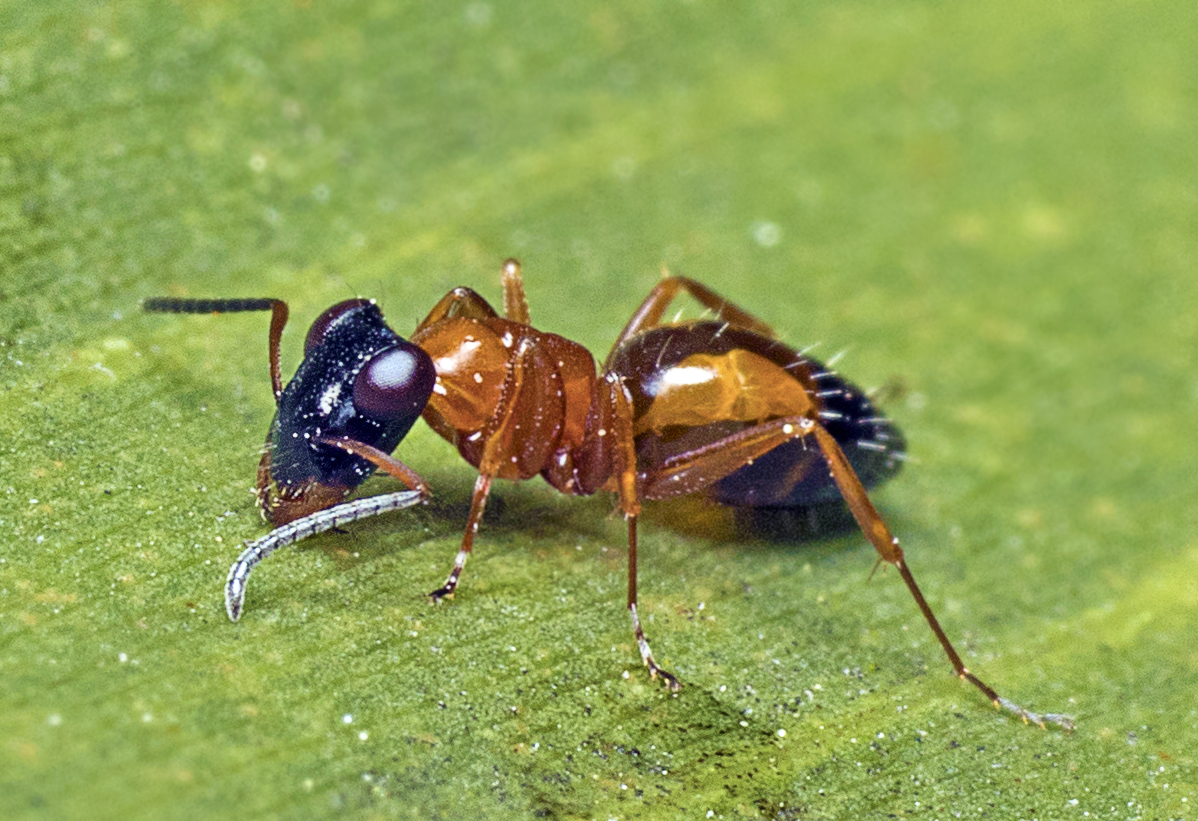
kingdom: Animalia
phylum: Arthropoda
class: Insecta
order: Hymenoptera
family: Formicidae
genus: Opisthopsis
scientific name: Opisthopsis rufithorax
